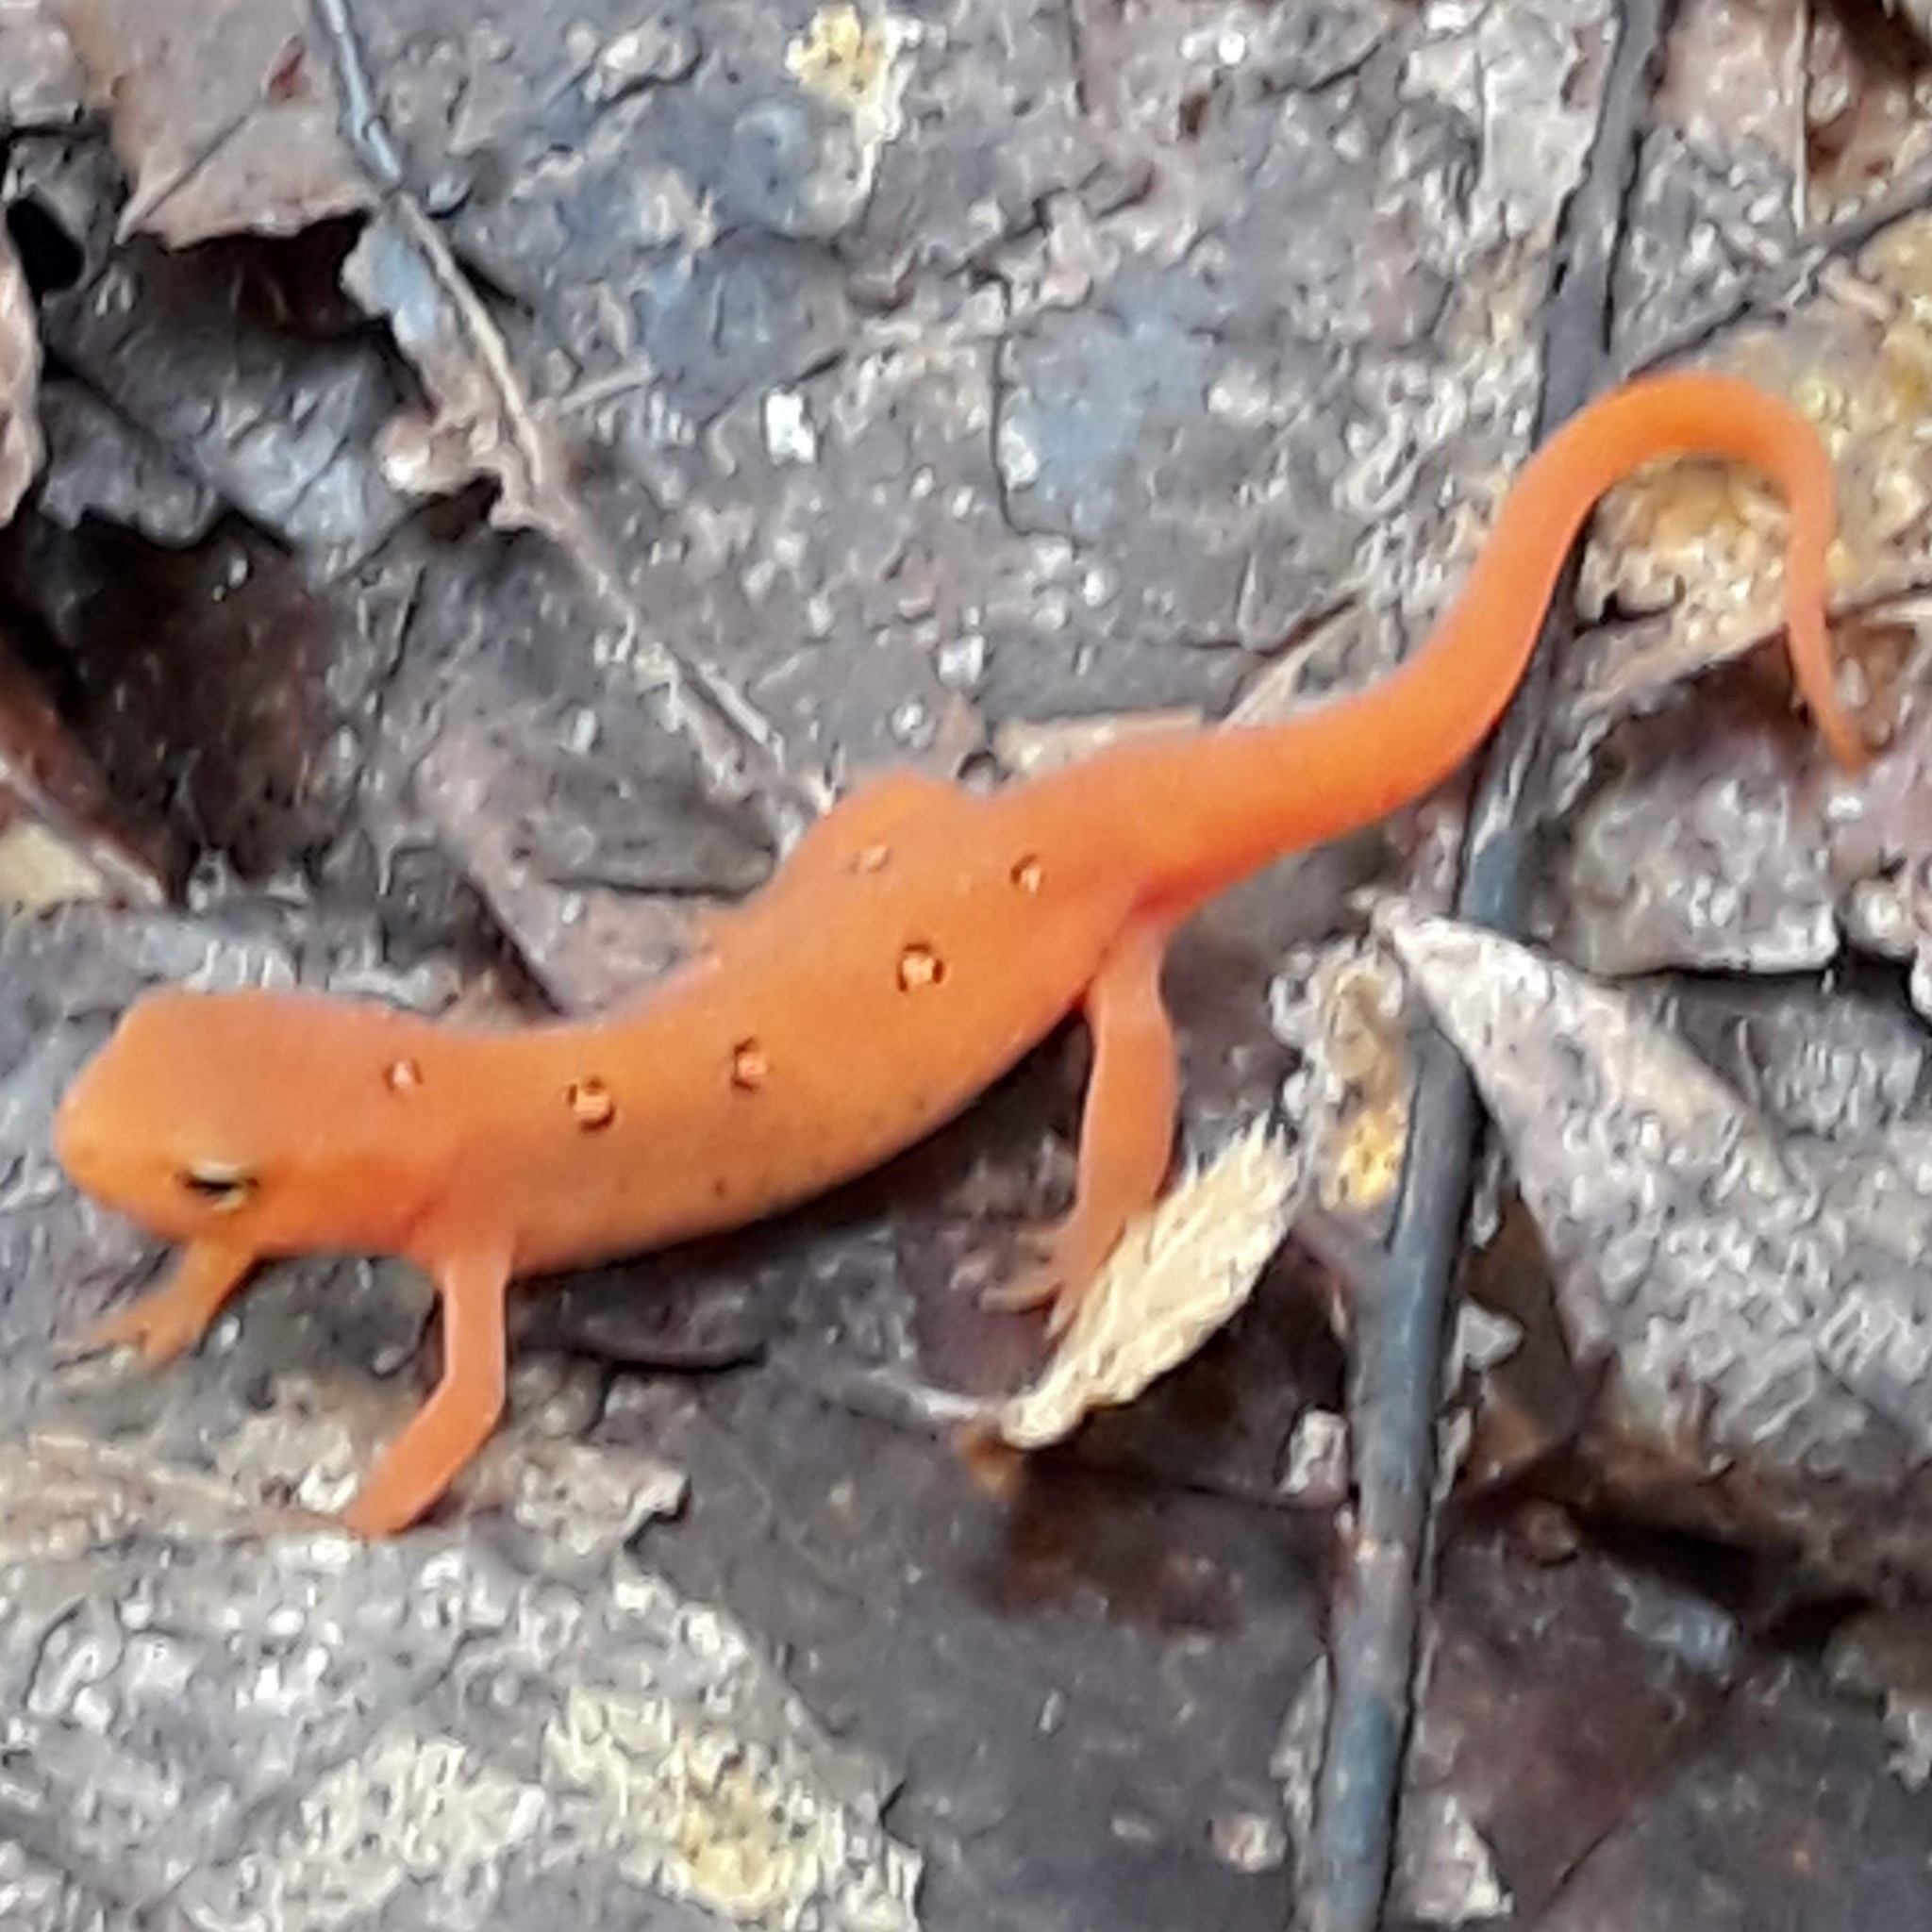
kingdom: Animalia
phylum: Chordata
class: Amphibia
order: Caudata
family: Salamandridae
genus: Notophthalmus
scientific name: Notophthalmus viridescens
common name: Eastern newt
